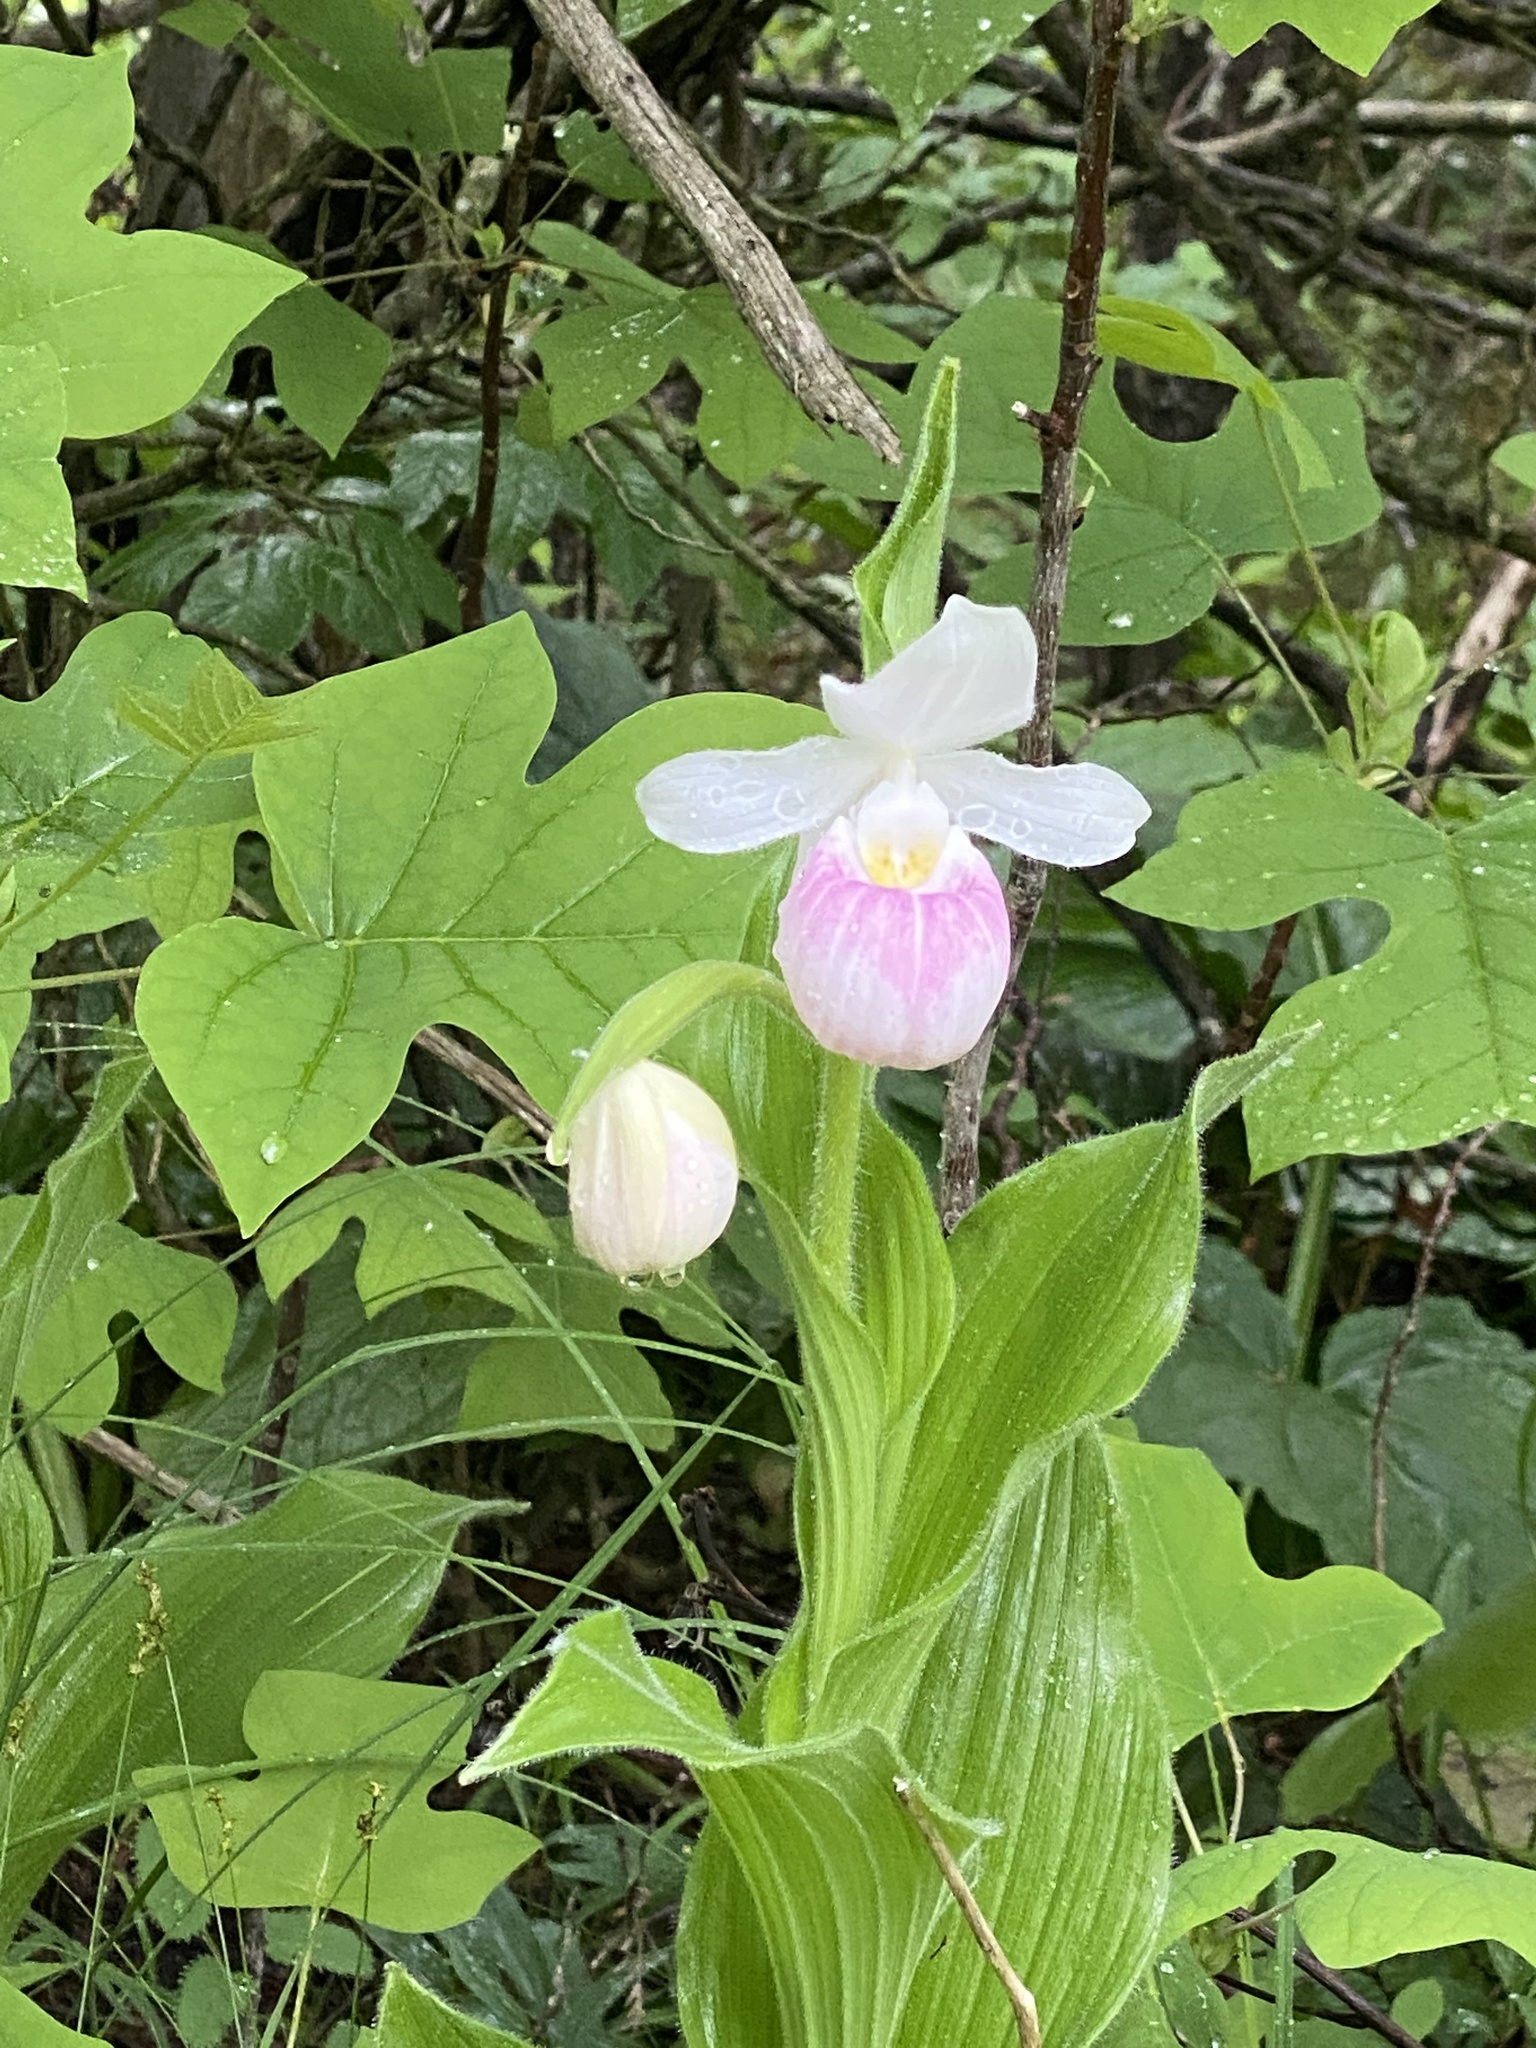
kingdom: Plantae
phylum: Tracheophyta
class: Liliopsida
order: Asparagales
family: Orchidaceae
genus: Cypripedium
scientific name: Cypripedium reginae
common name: Queen lady's-slipper
